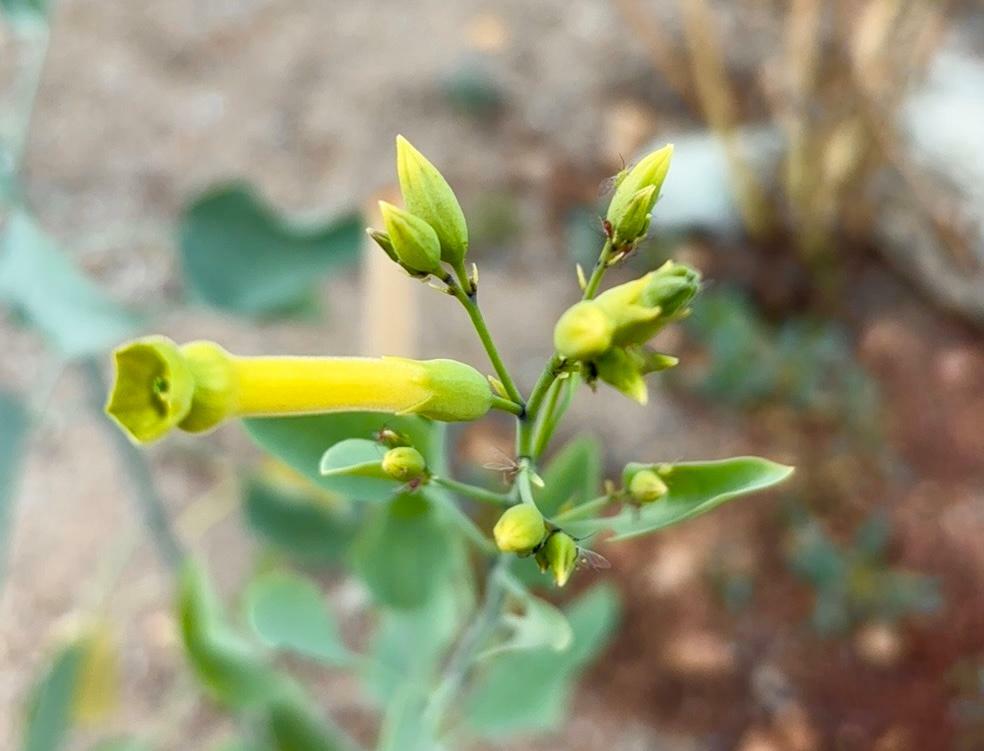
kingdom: Plantae
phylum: Tracheophyta
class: Magnoliopsida
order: Solanales
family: Solanaceae
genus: Nicotiana
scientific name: Nicotiana glauca
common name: Tree tobacco
